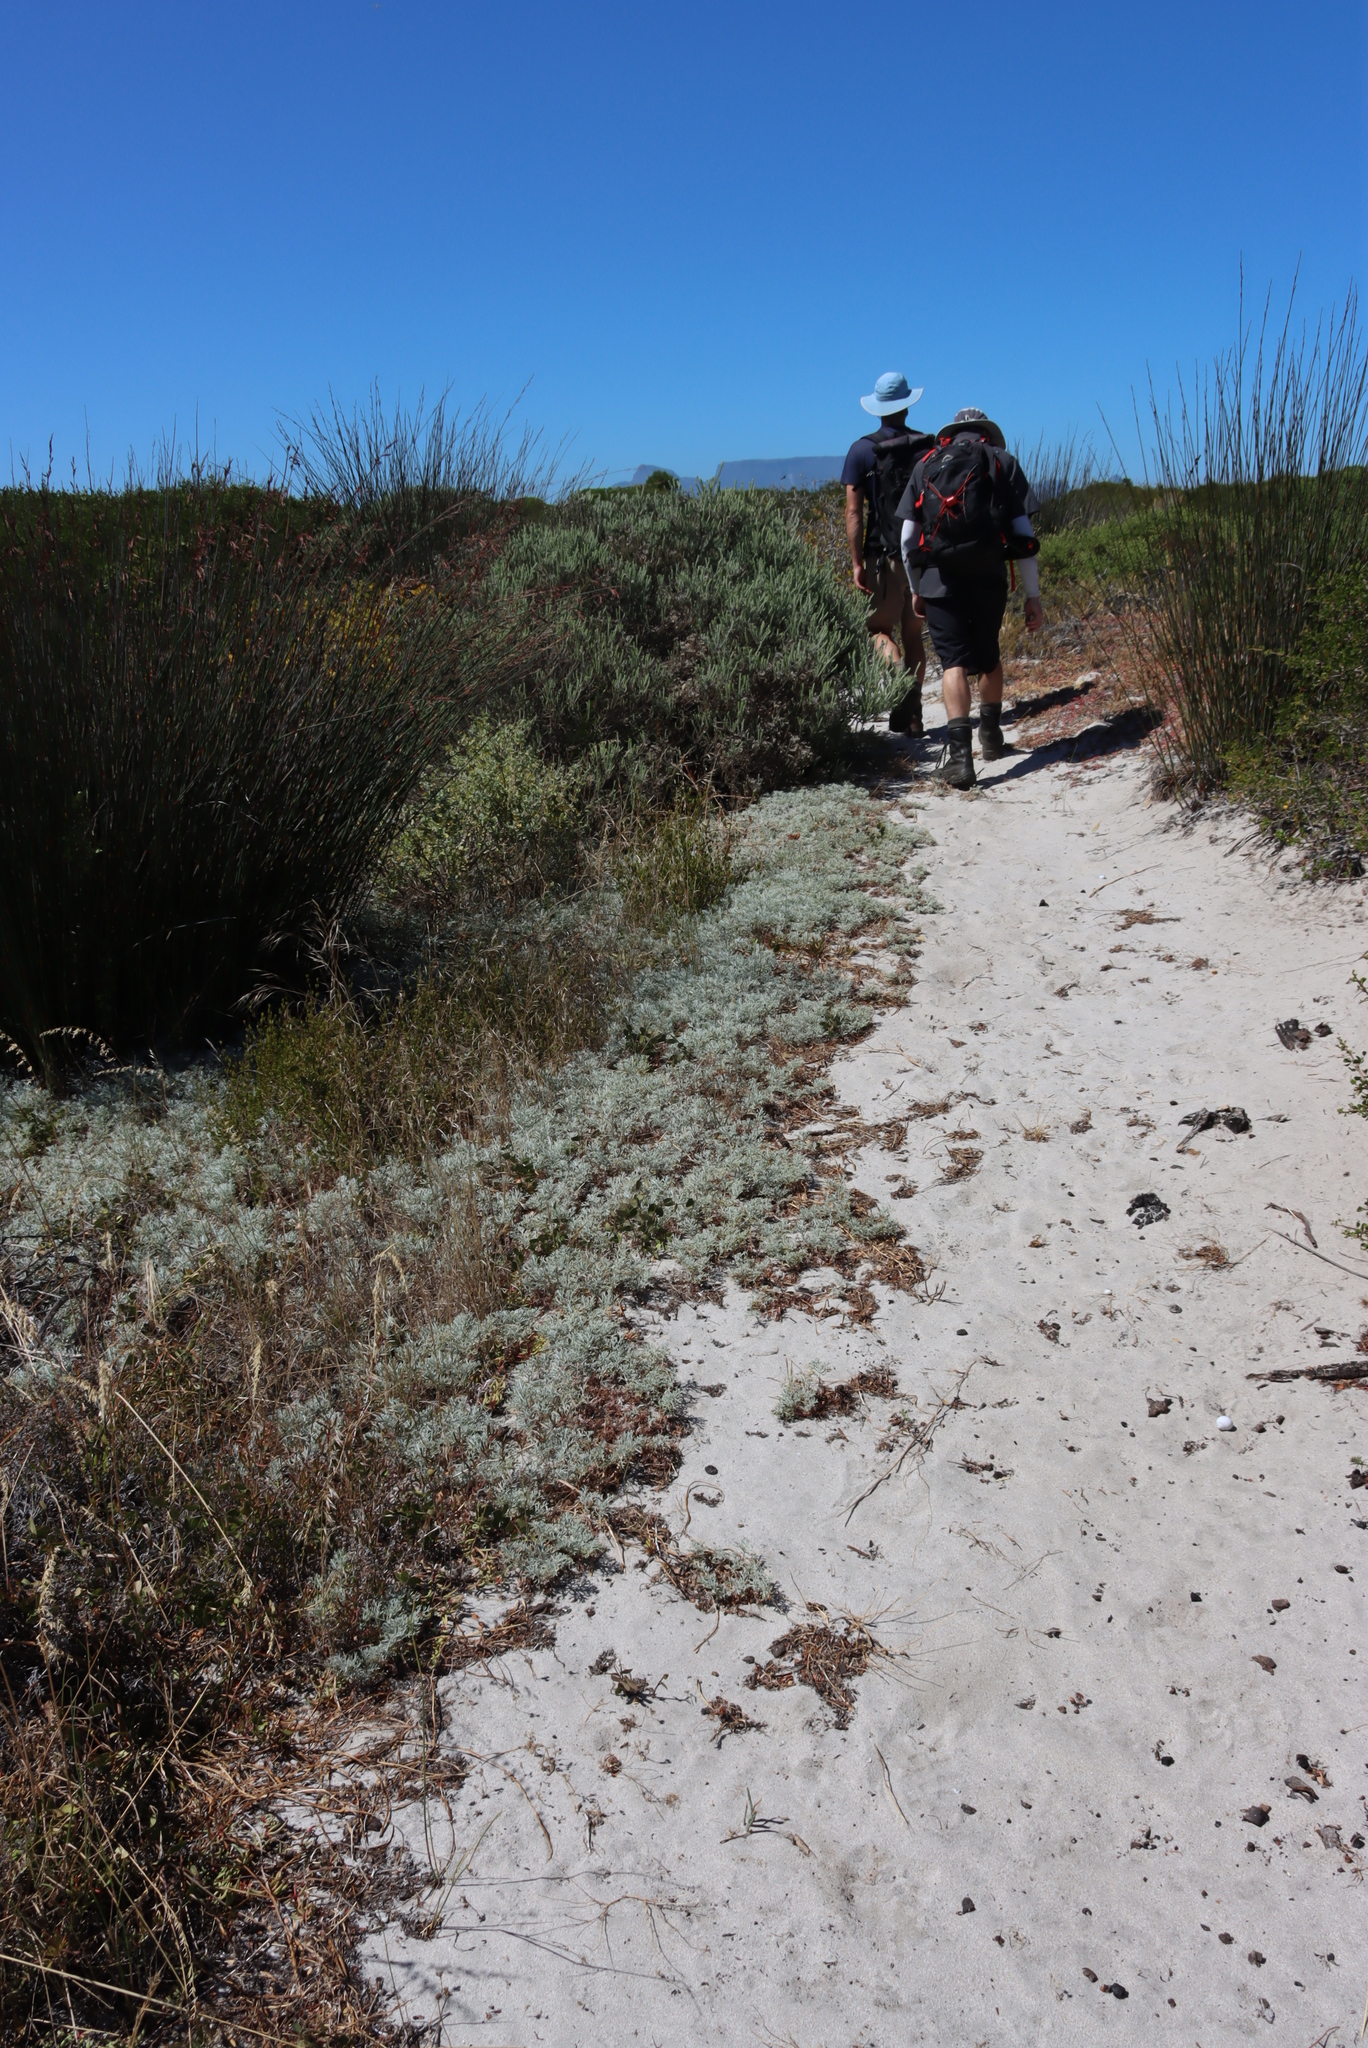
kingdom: Plantae
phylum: Tracheophyta
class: Magnoliopsida
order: Malvales
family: Neuradaceae
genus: Grielum
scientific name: Grielum grandiflorum
